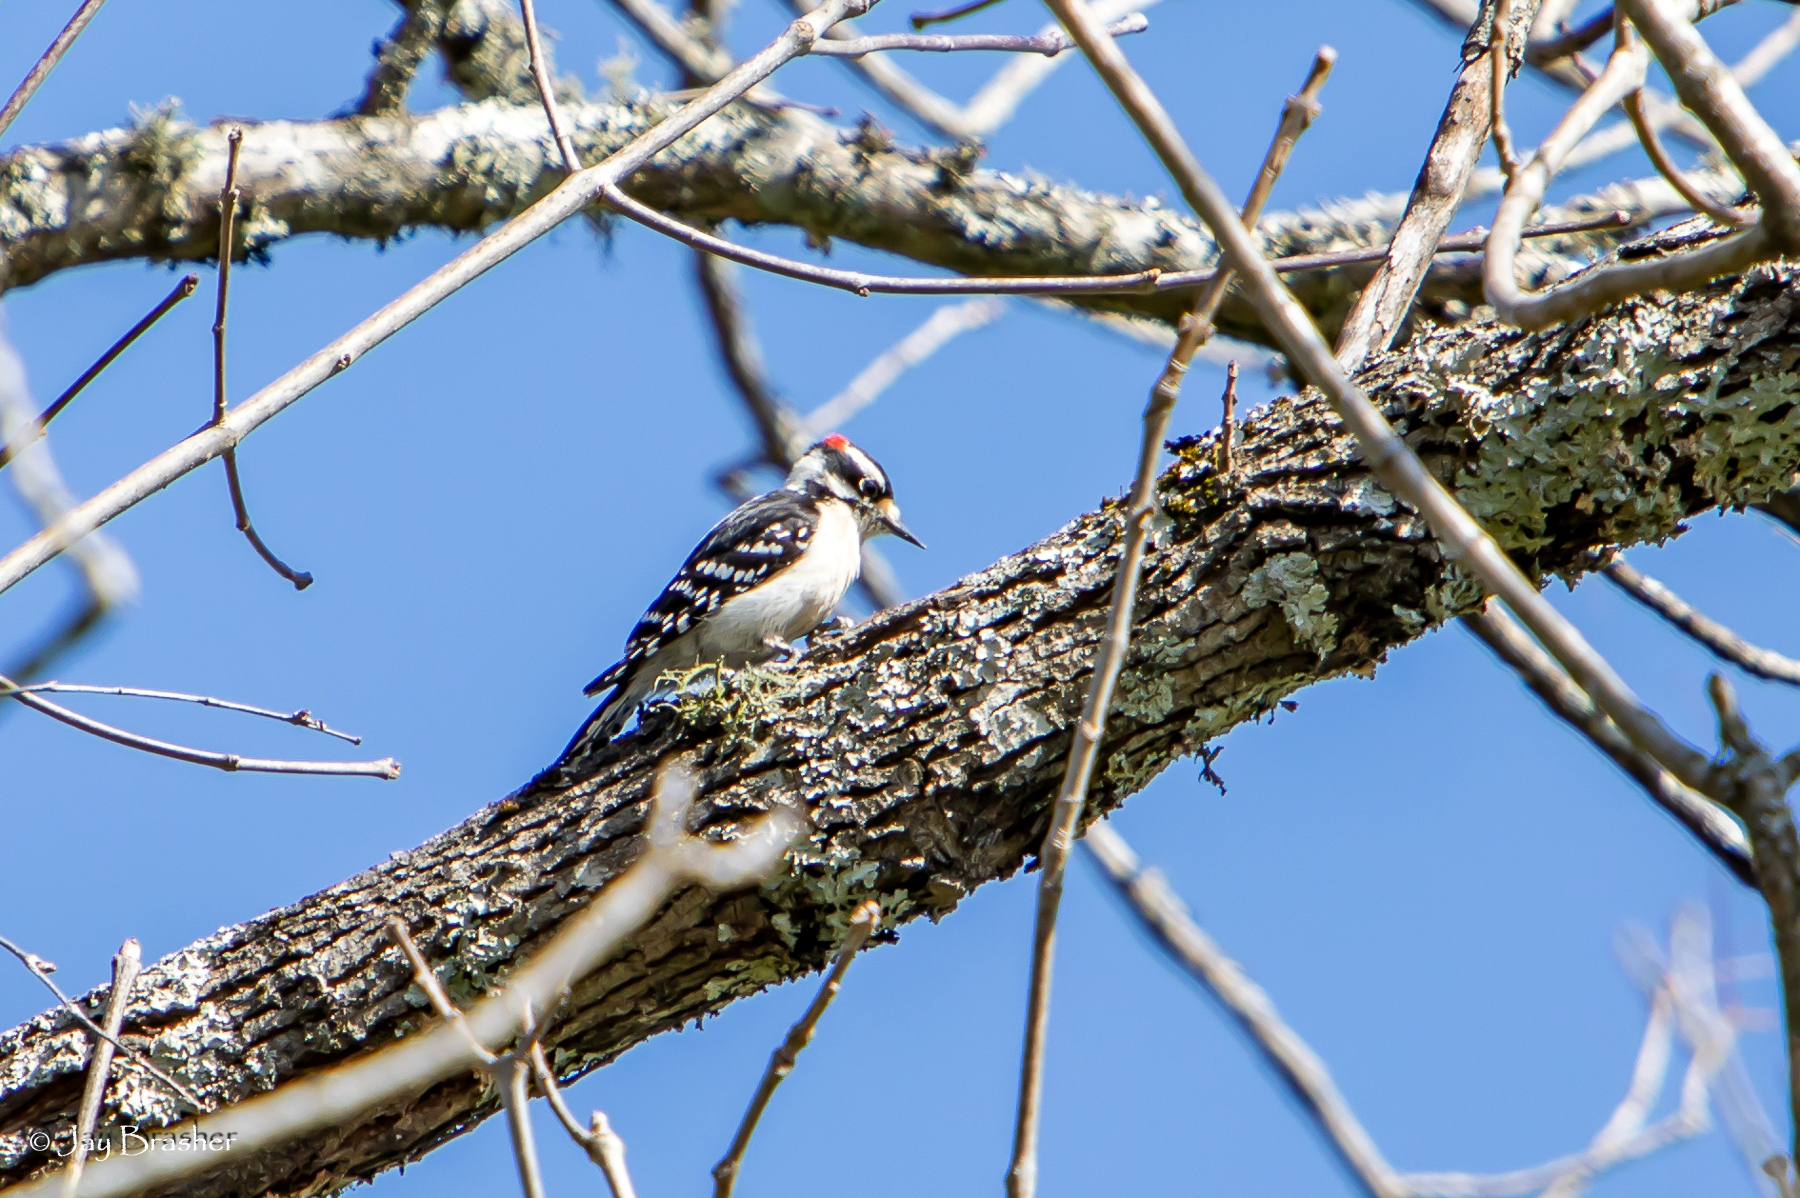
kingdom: Animalia
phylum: Chordata
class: Aves
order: Piciformes
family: Picidae
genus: Dryobates
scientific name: Dryobates pubescens
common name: Downy woodpecker
